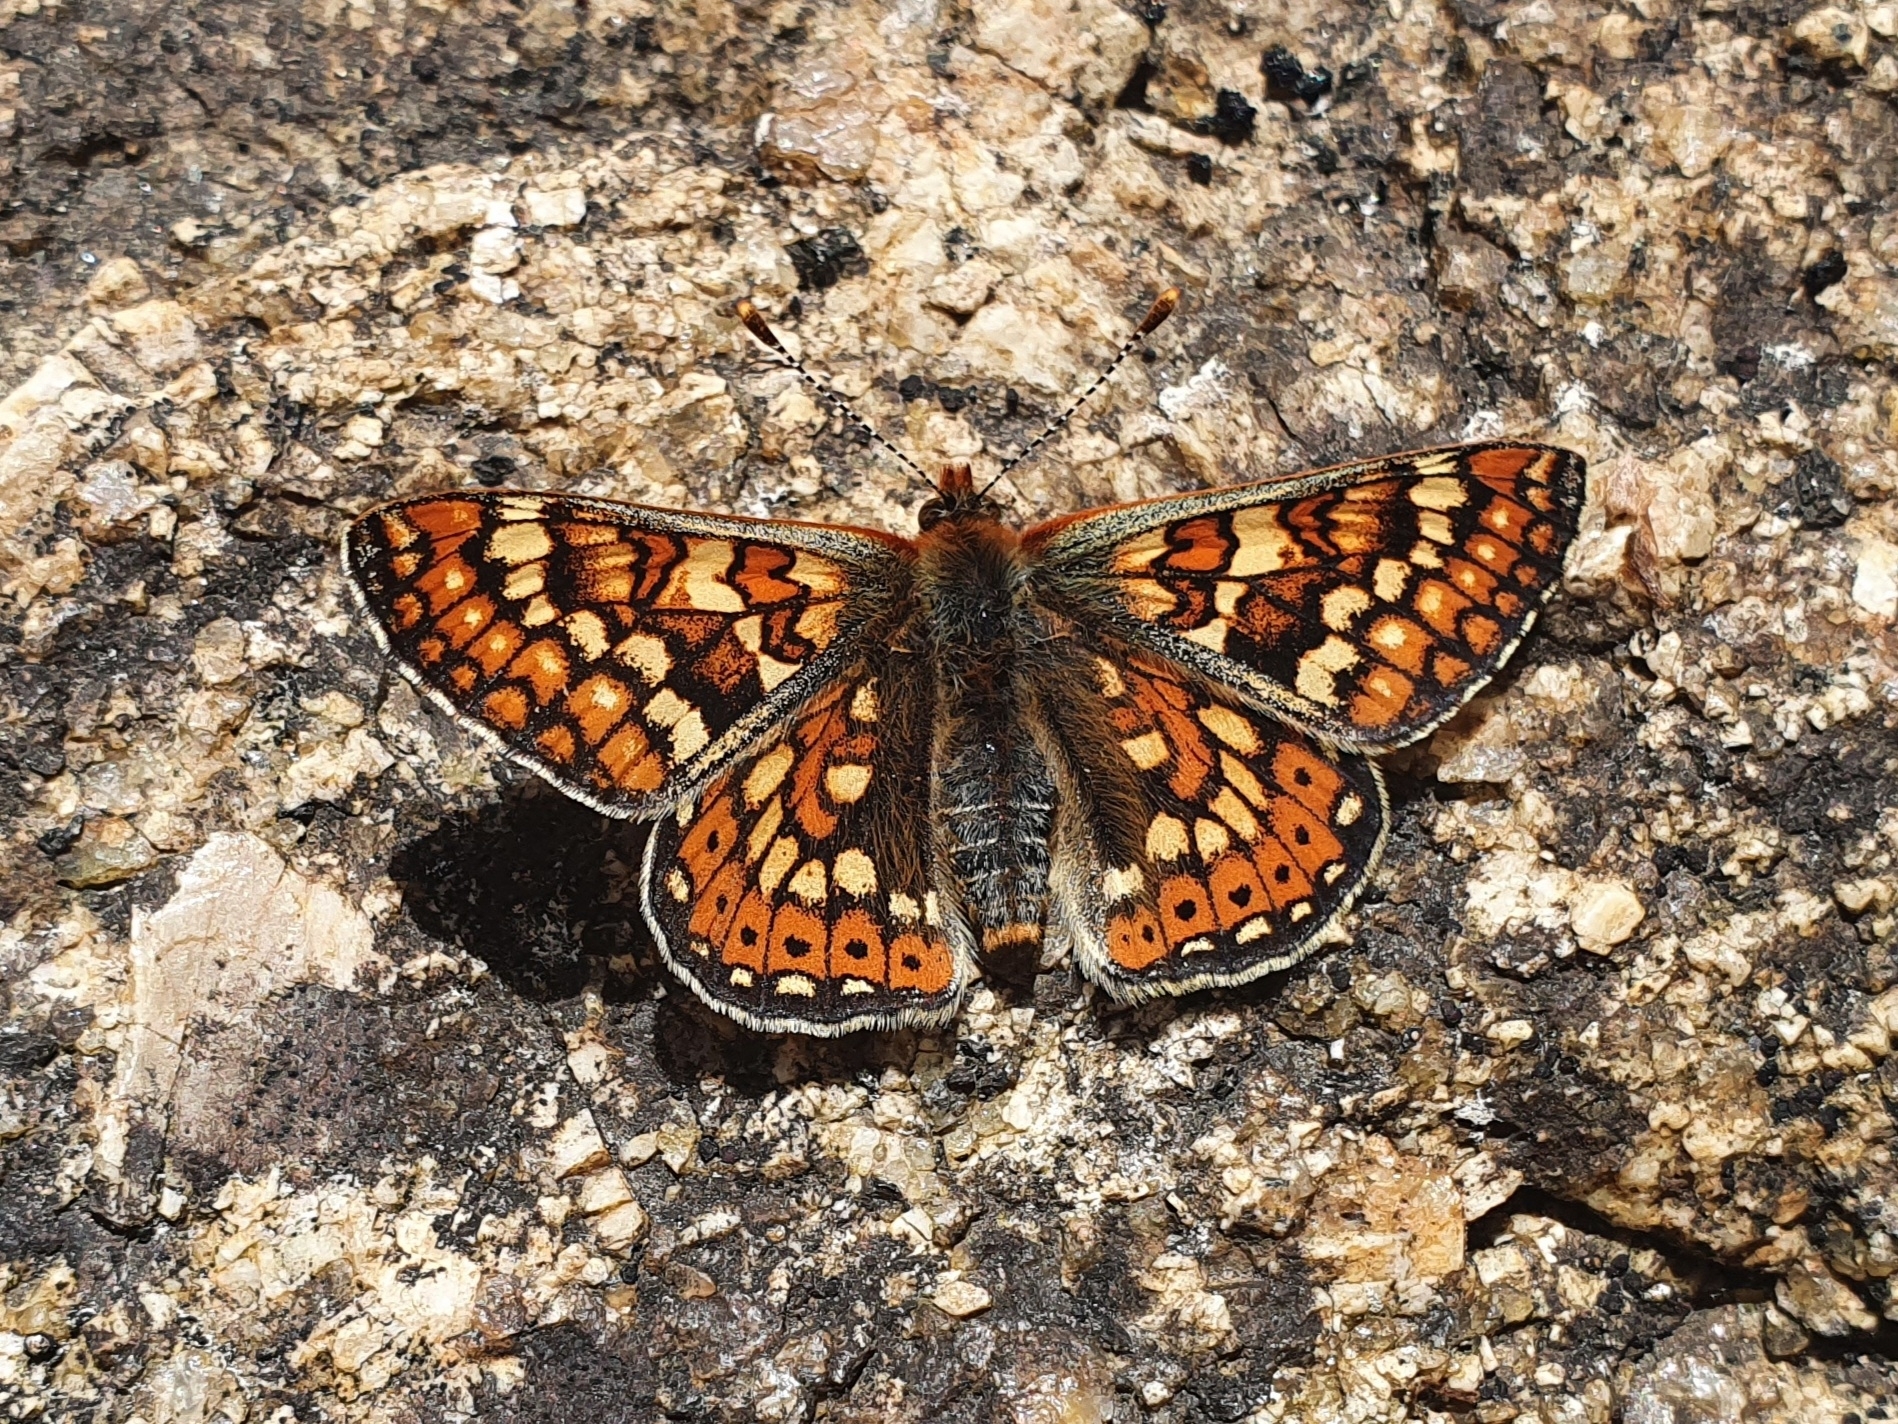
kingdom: Animalia
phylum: Arthropoda
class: Insecta
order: Lepidoptera
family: Nymphalidae
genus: Euphydryas
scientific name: Euphydryas aurinia
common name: Marsh fritillary
